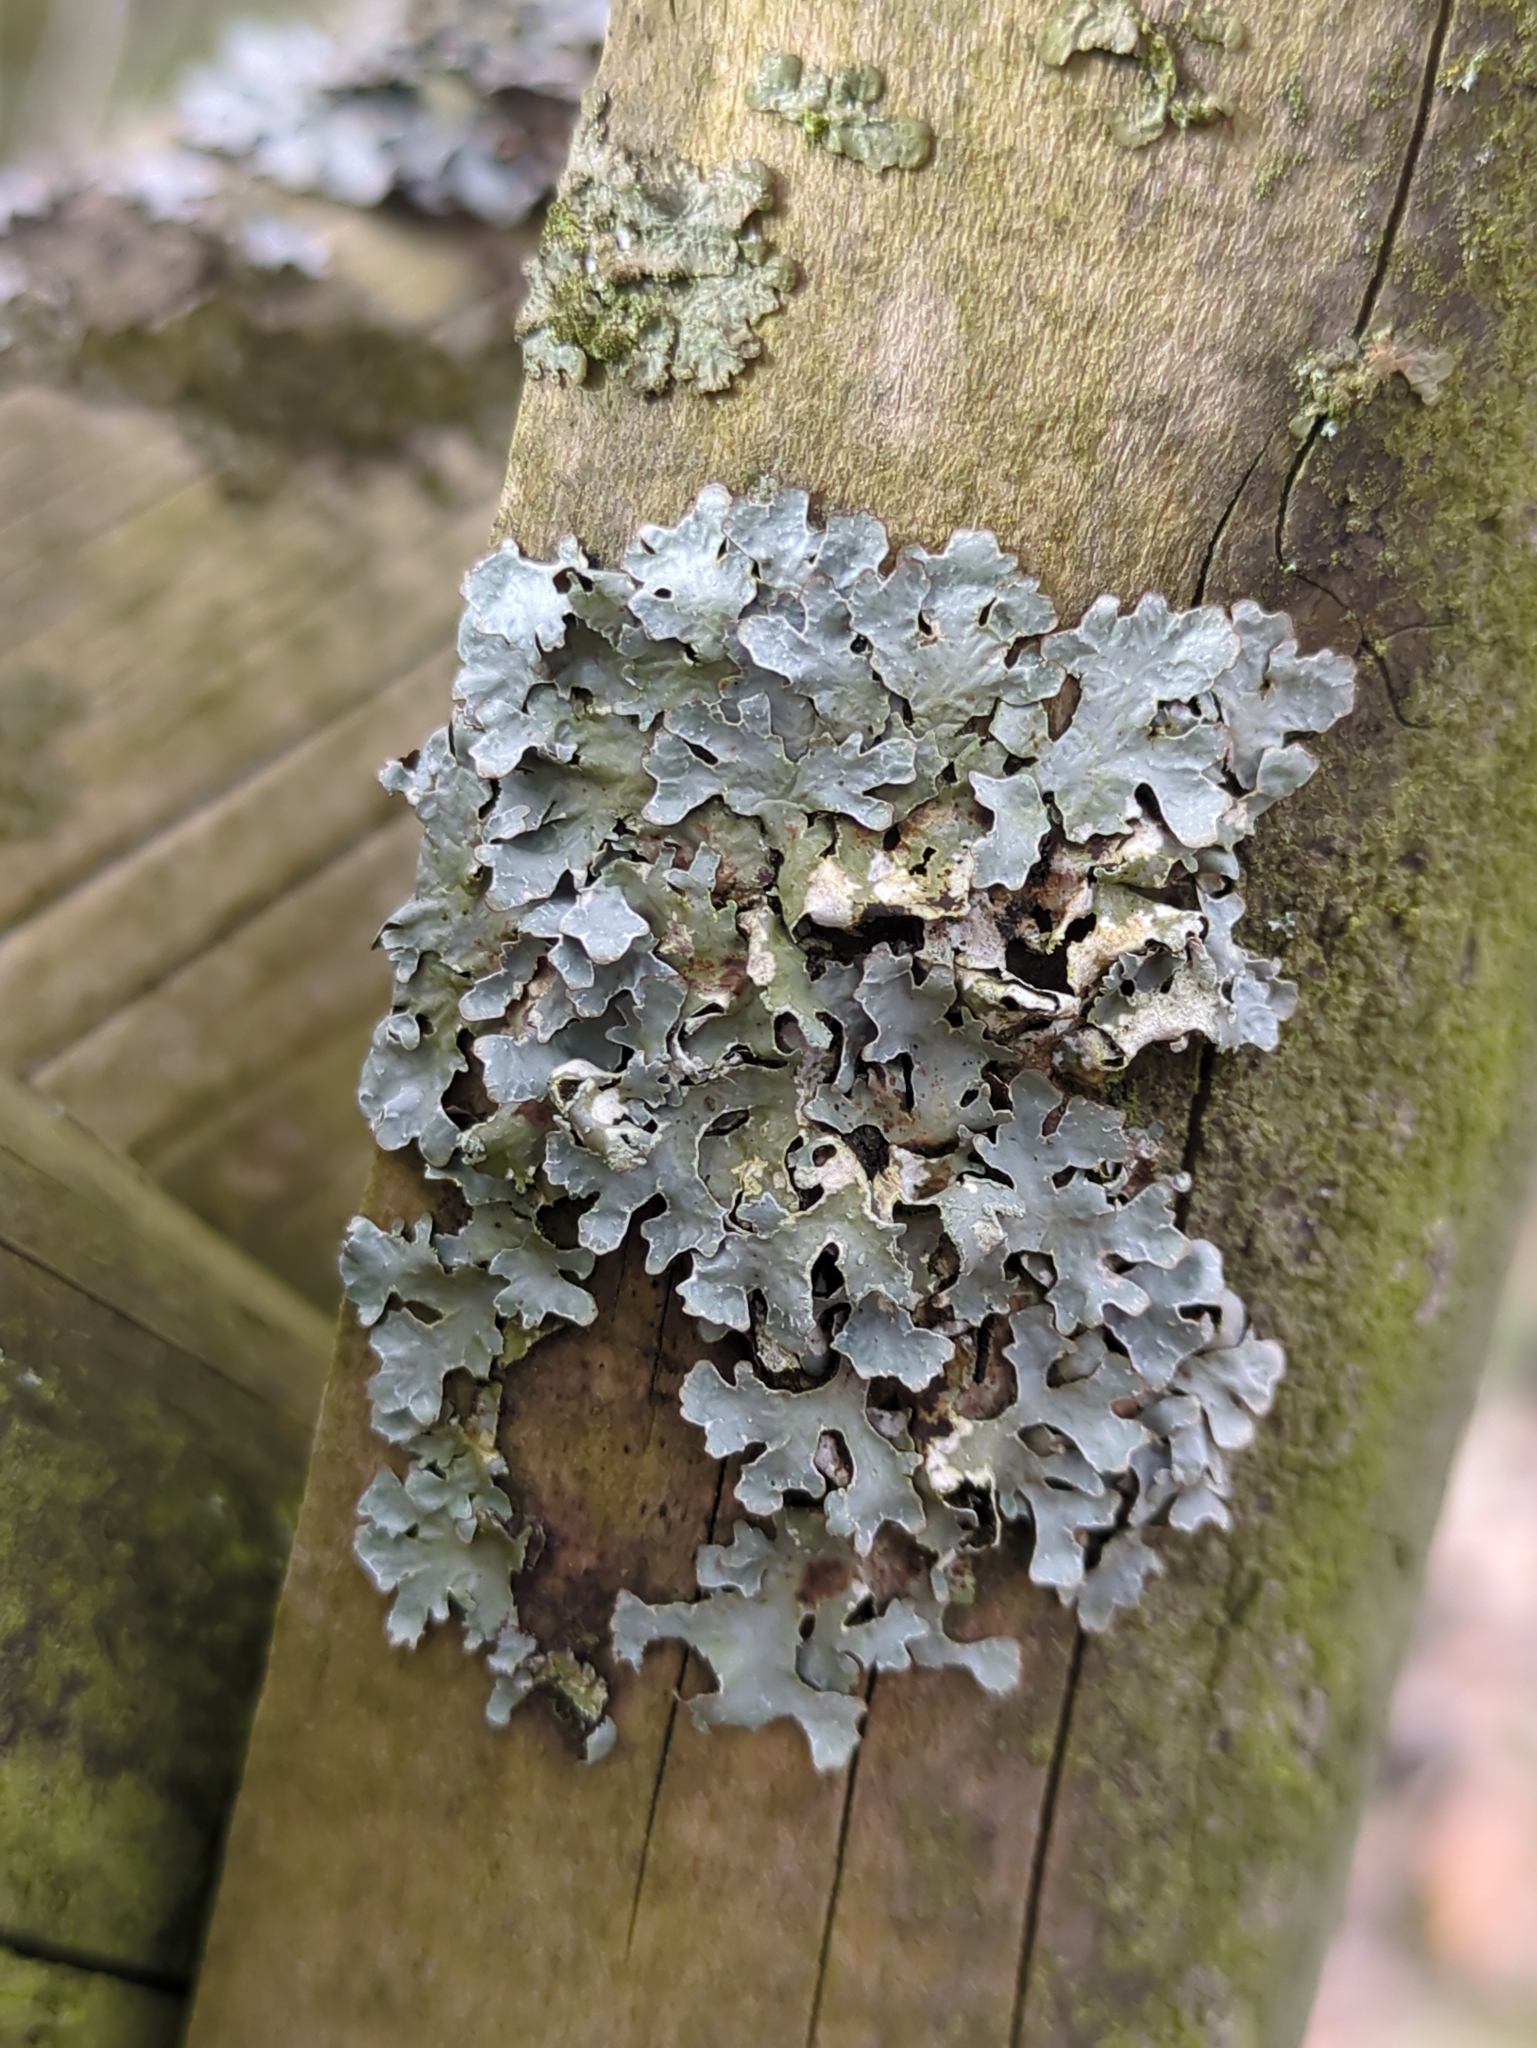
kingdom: Fungi
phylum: Ascomycota
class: Lecanoromycetes
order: Lecanorales
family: Parmeliaceae
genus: Parmelia
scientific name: Parmelia sulcata
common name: Netted shield lichen
